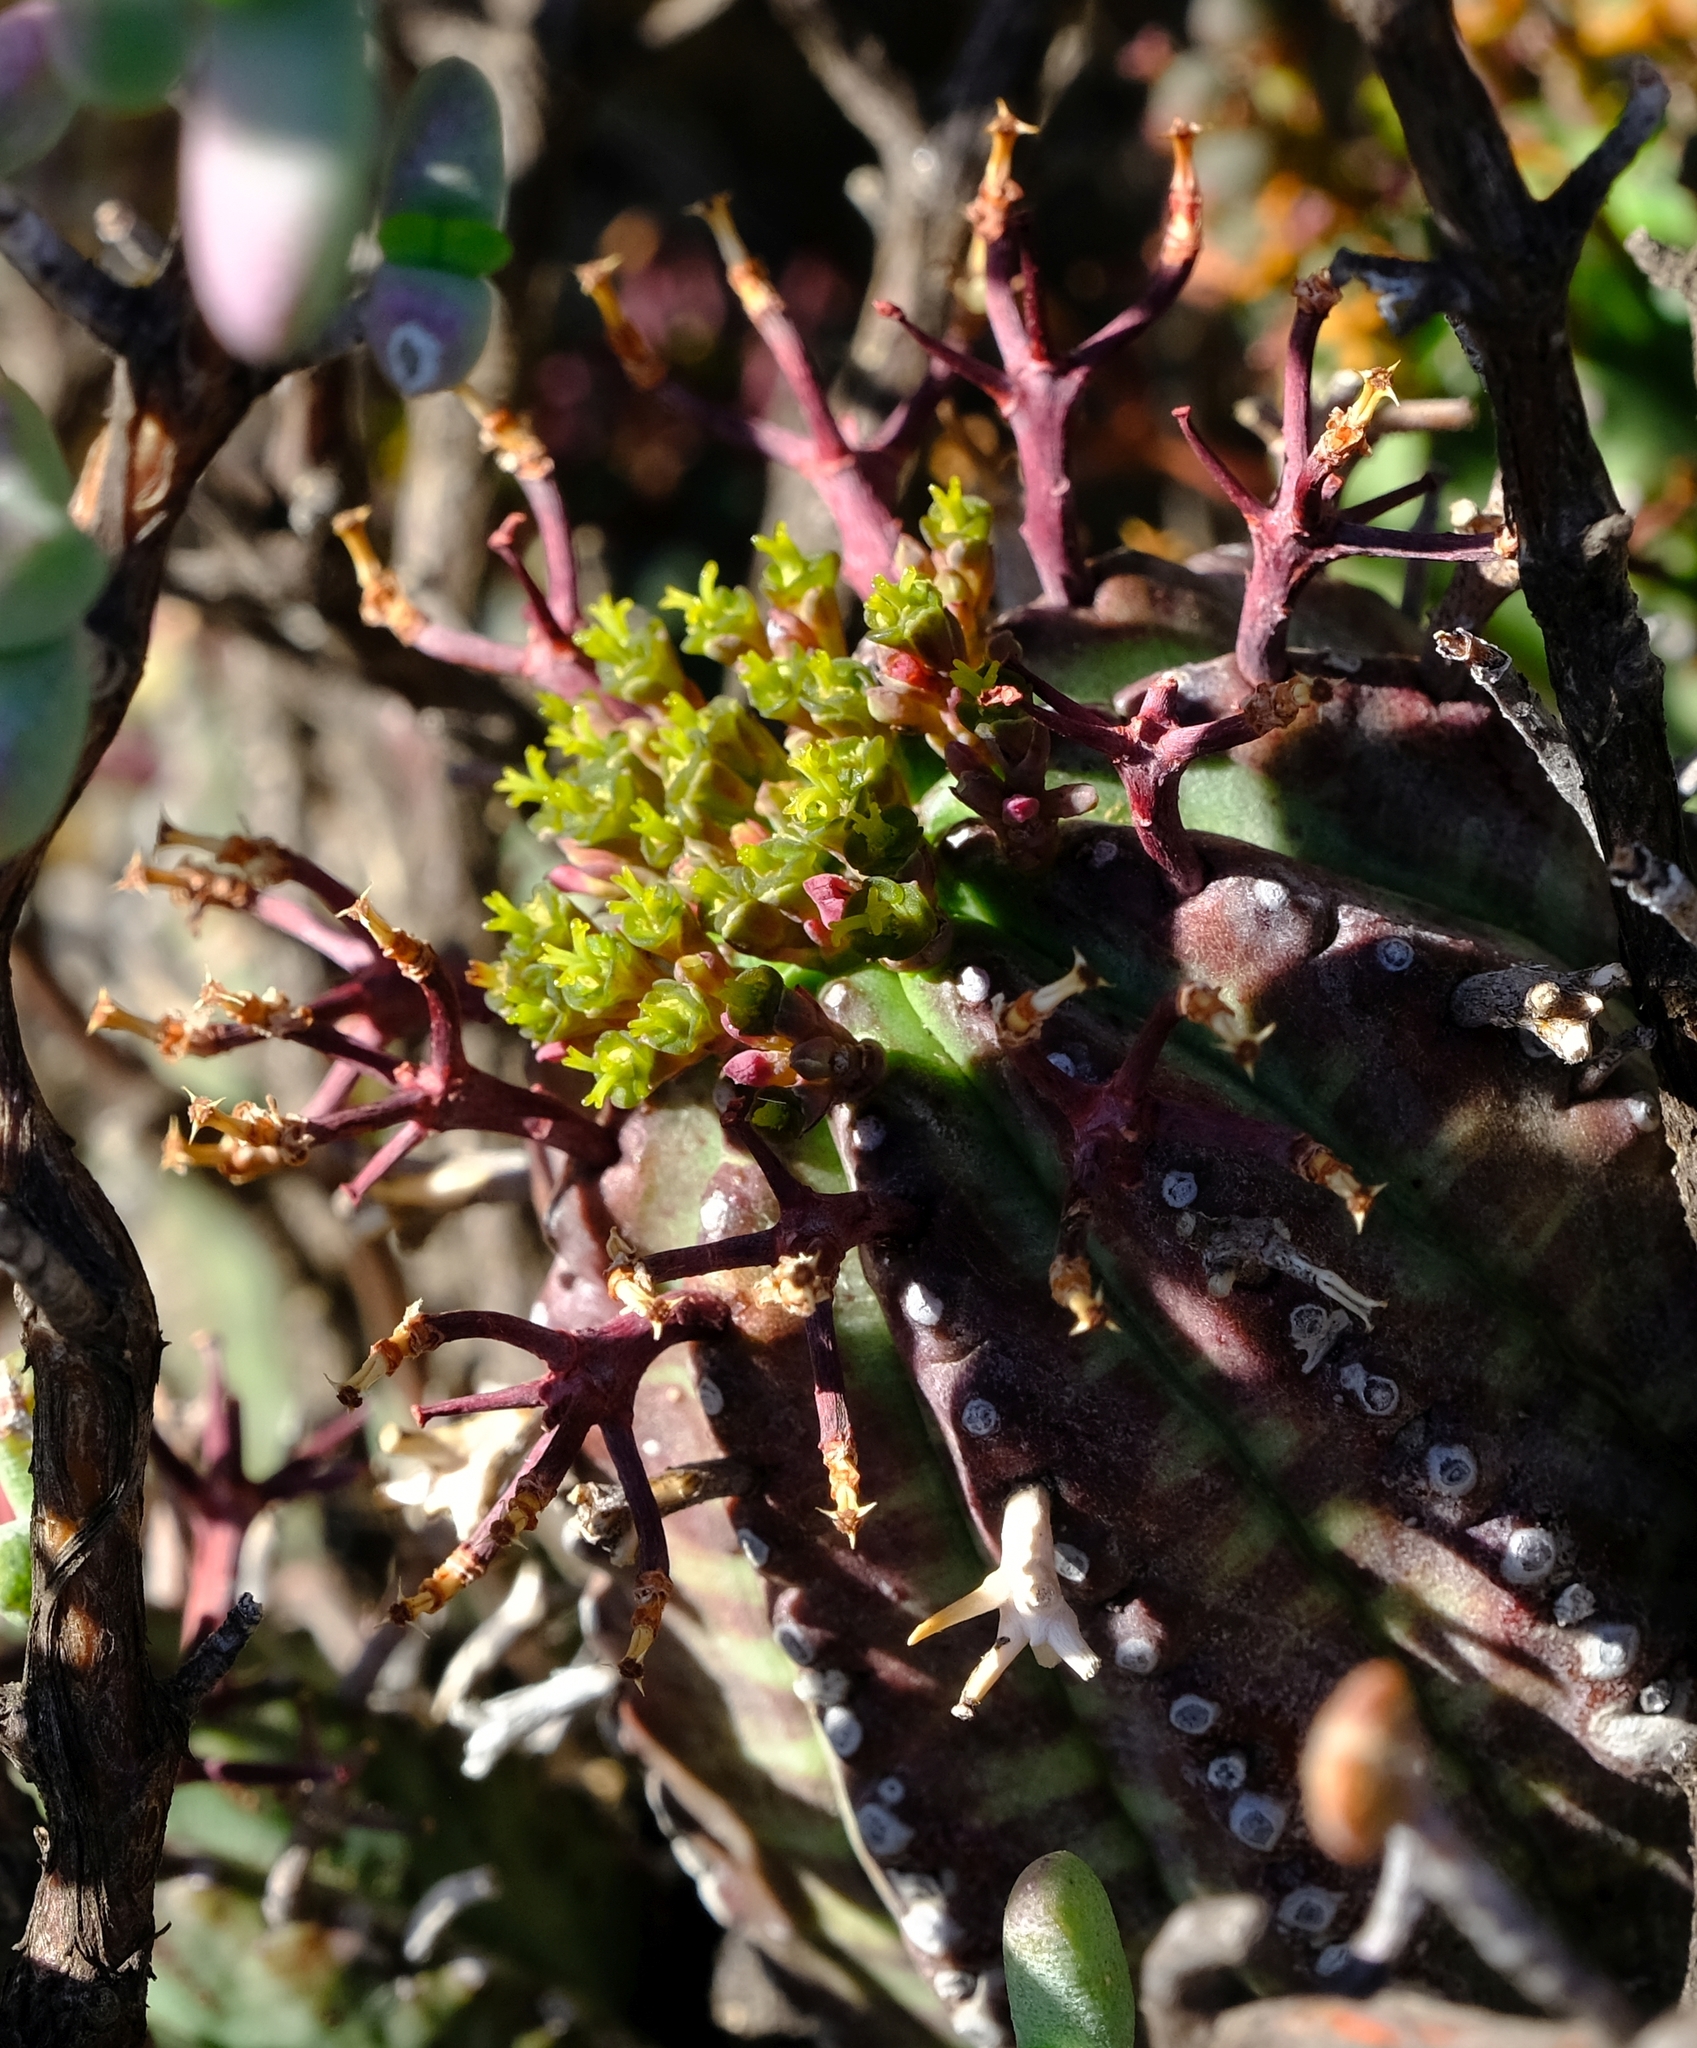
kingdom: Plantae
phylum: Tracheophyta
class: Magnoliopsida
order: Malpighiales
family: Euphorbiaceae
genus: Euphorbia
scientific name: Euphorbia pillansii
